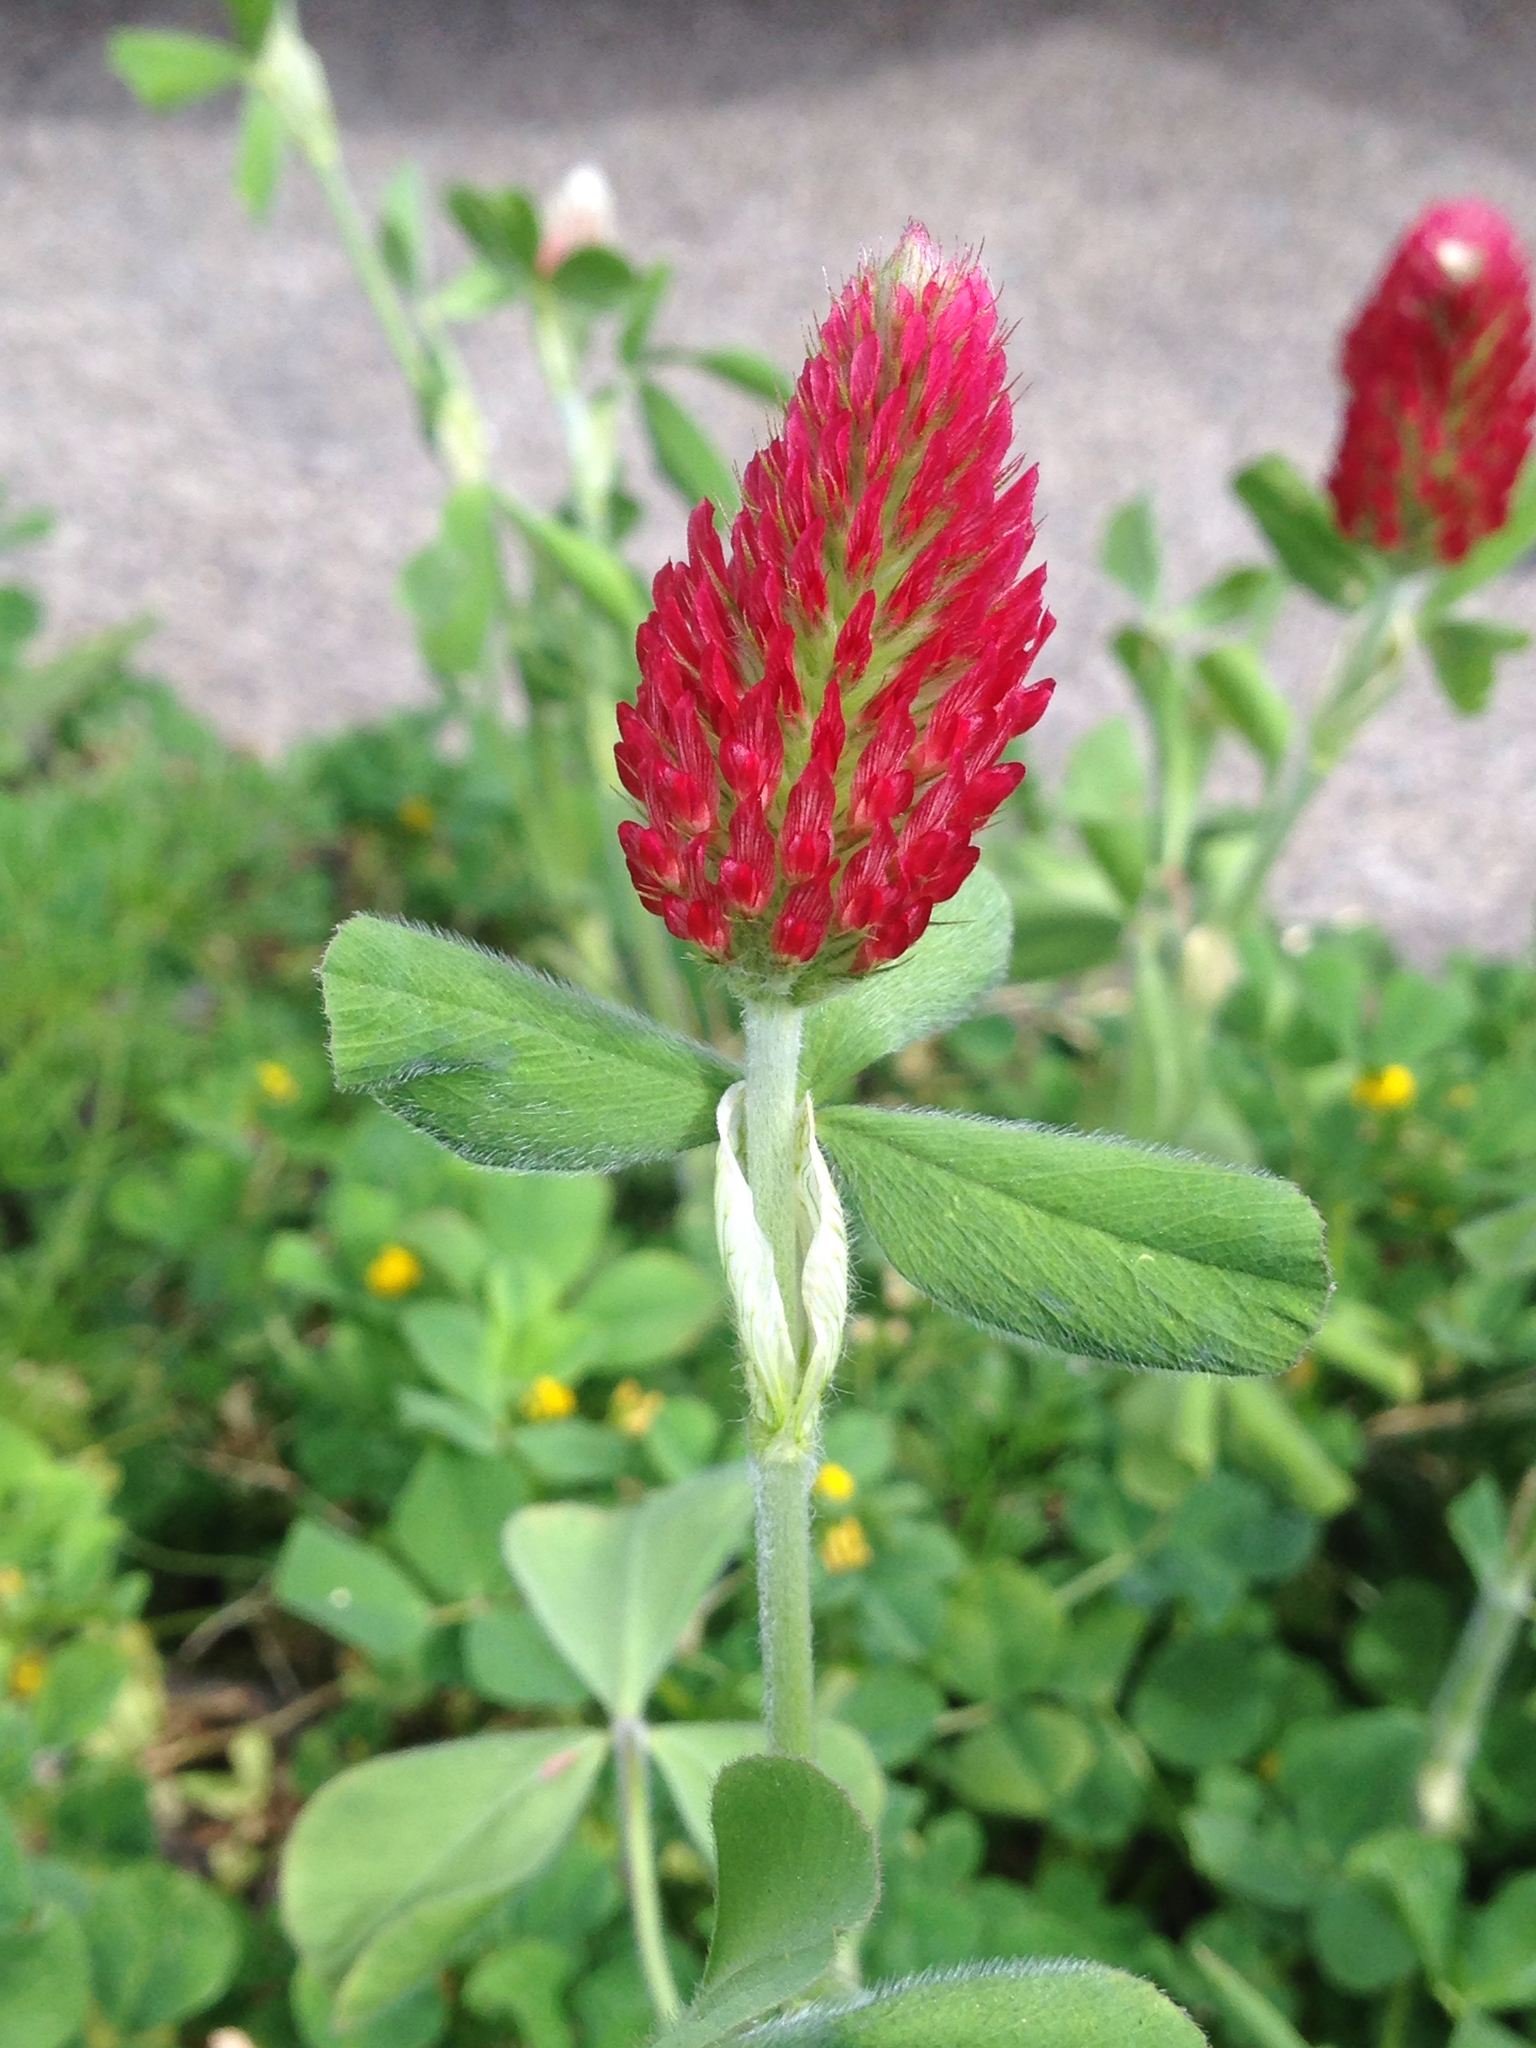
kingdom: Plantae
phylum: Tracheophyta
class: Magnoliopsida
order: Fabales
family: Fabaceae
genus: Trifolium
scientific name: Trifolium incarnatum
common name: Crimson clover
